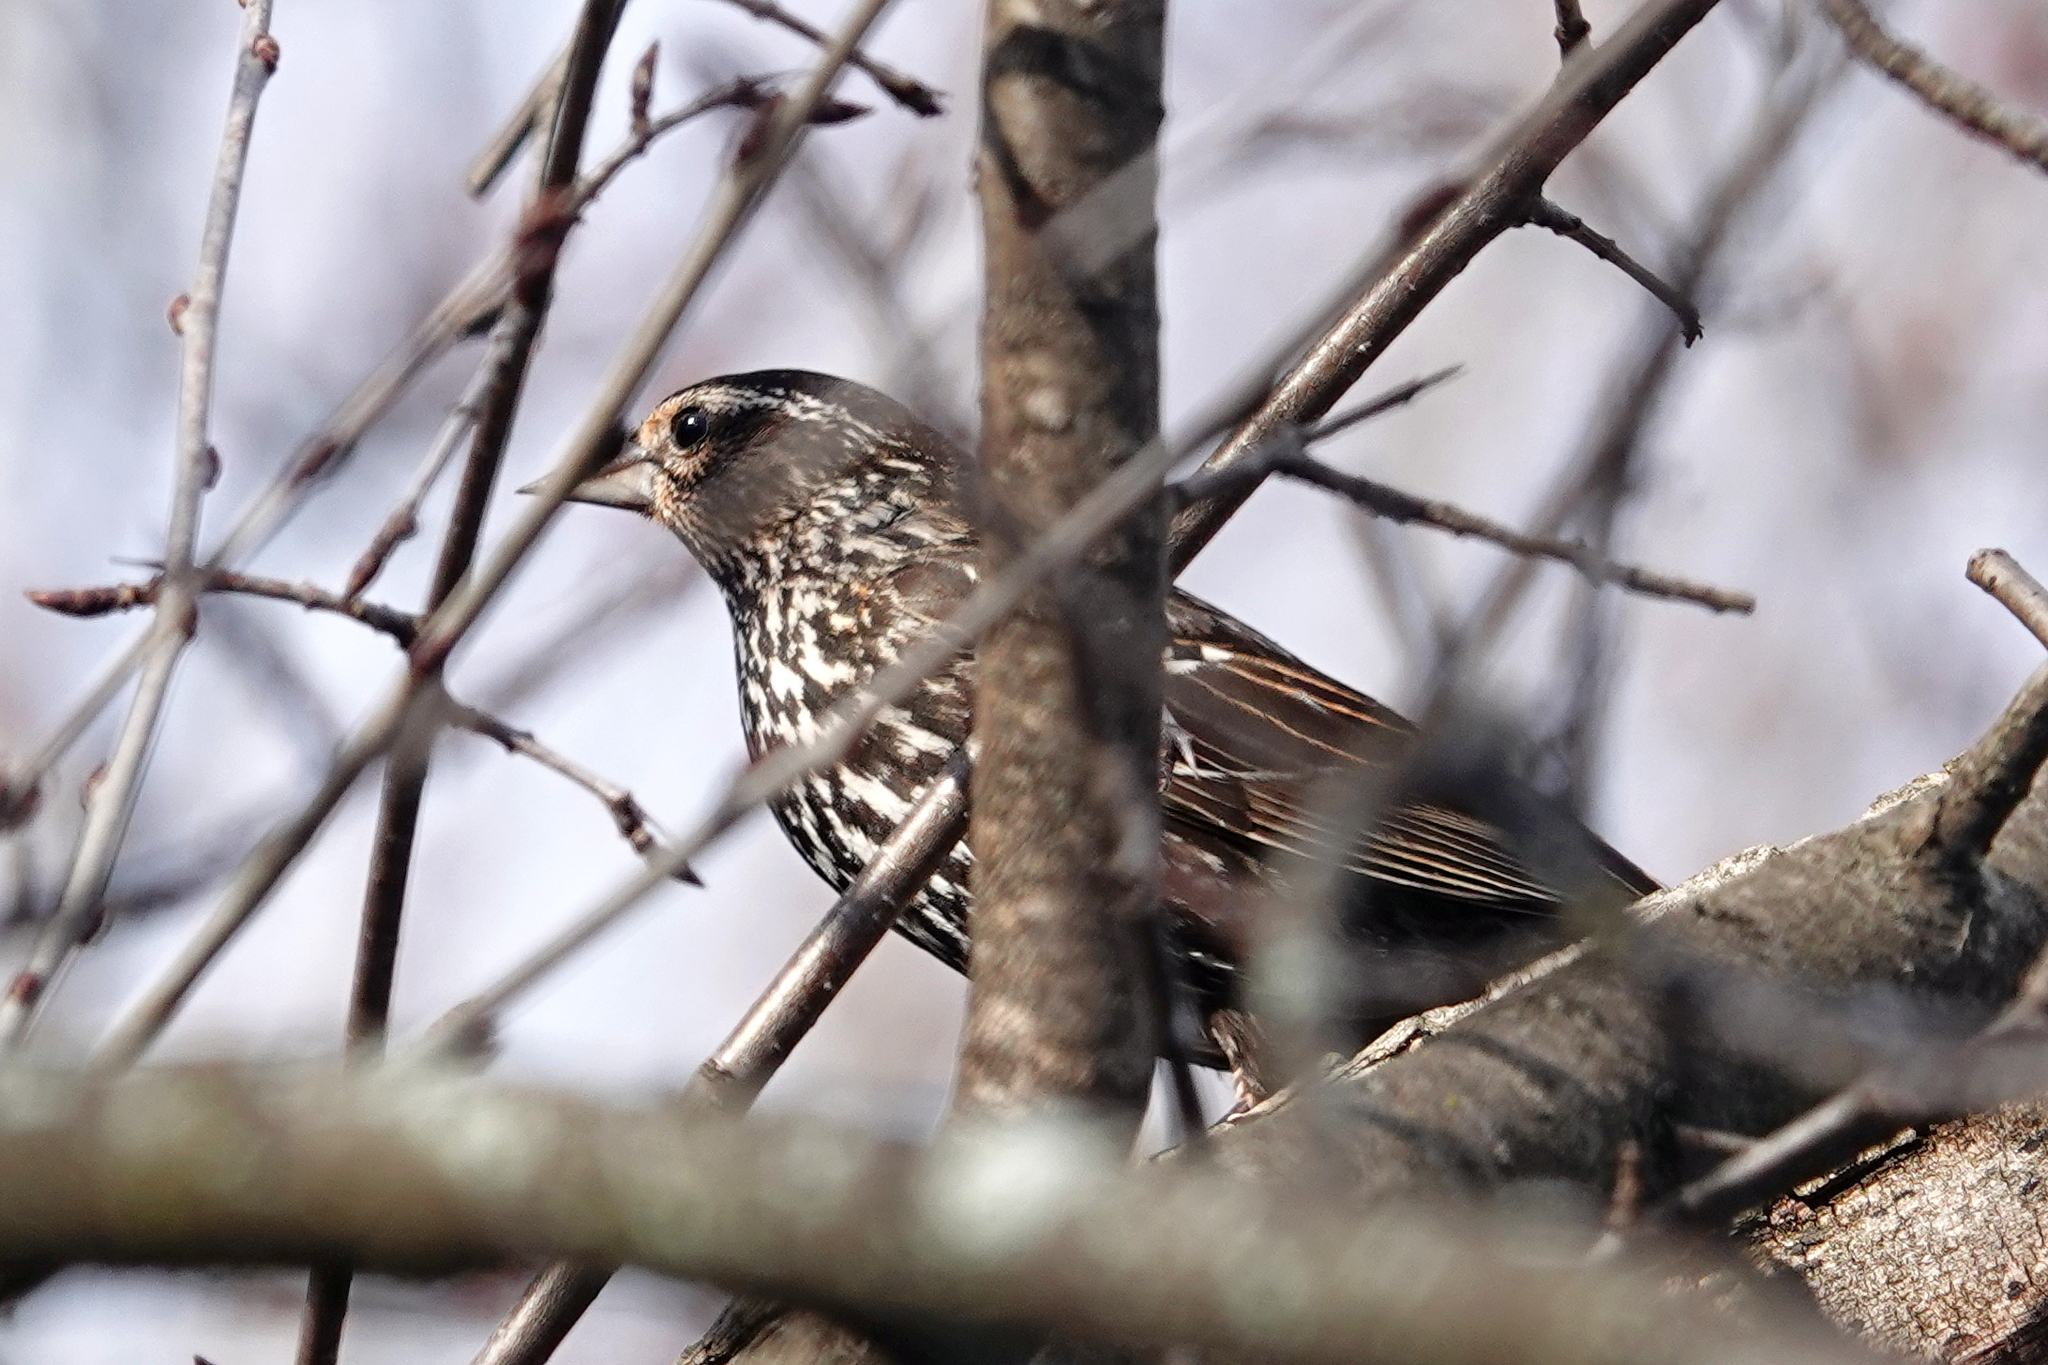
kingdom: Animalia
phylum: Chordata
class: Aves
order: Passeriformes
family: Icteridae
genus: Agelaius
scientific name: Agelaius phoeniceus
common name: Red-winged blackbird
